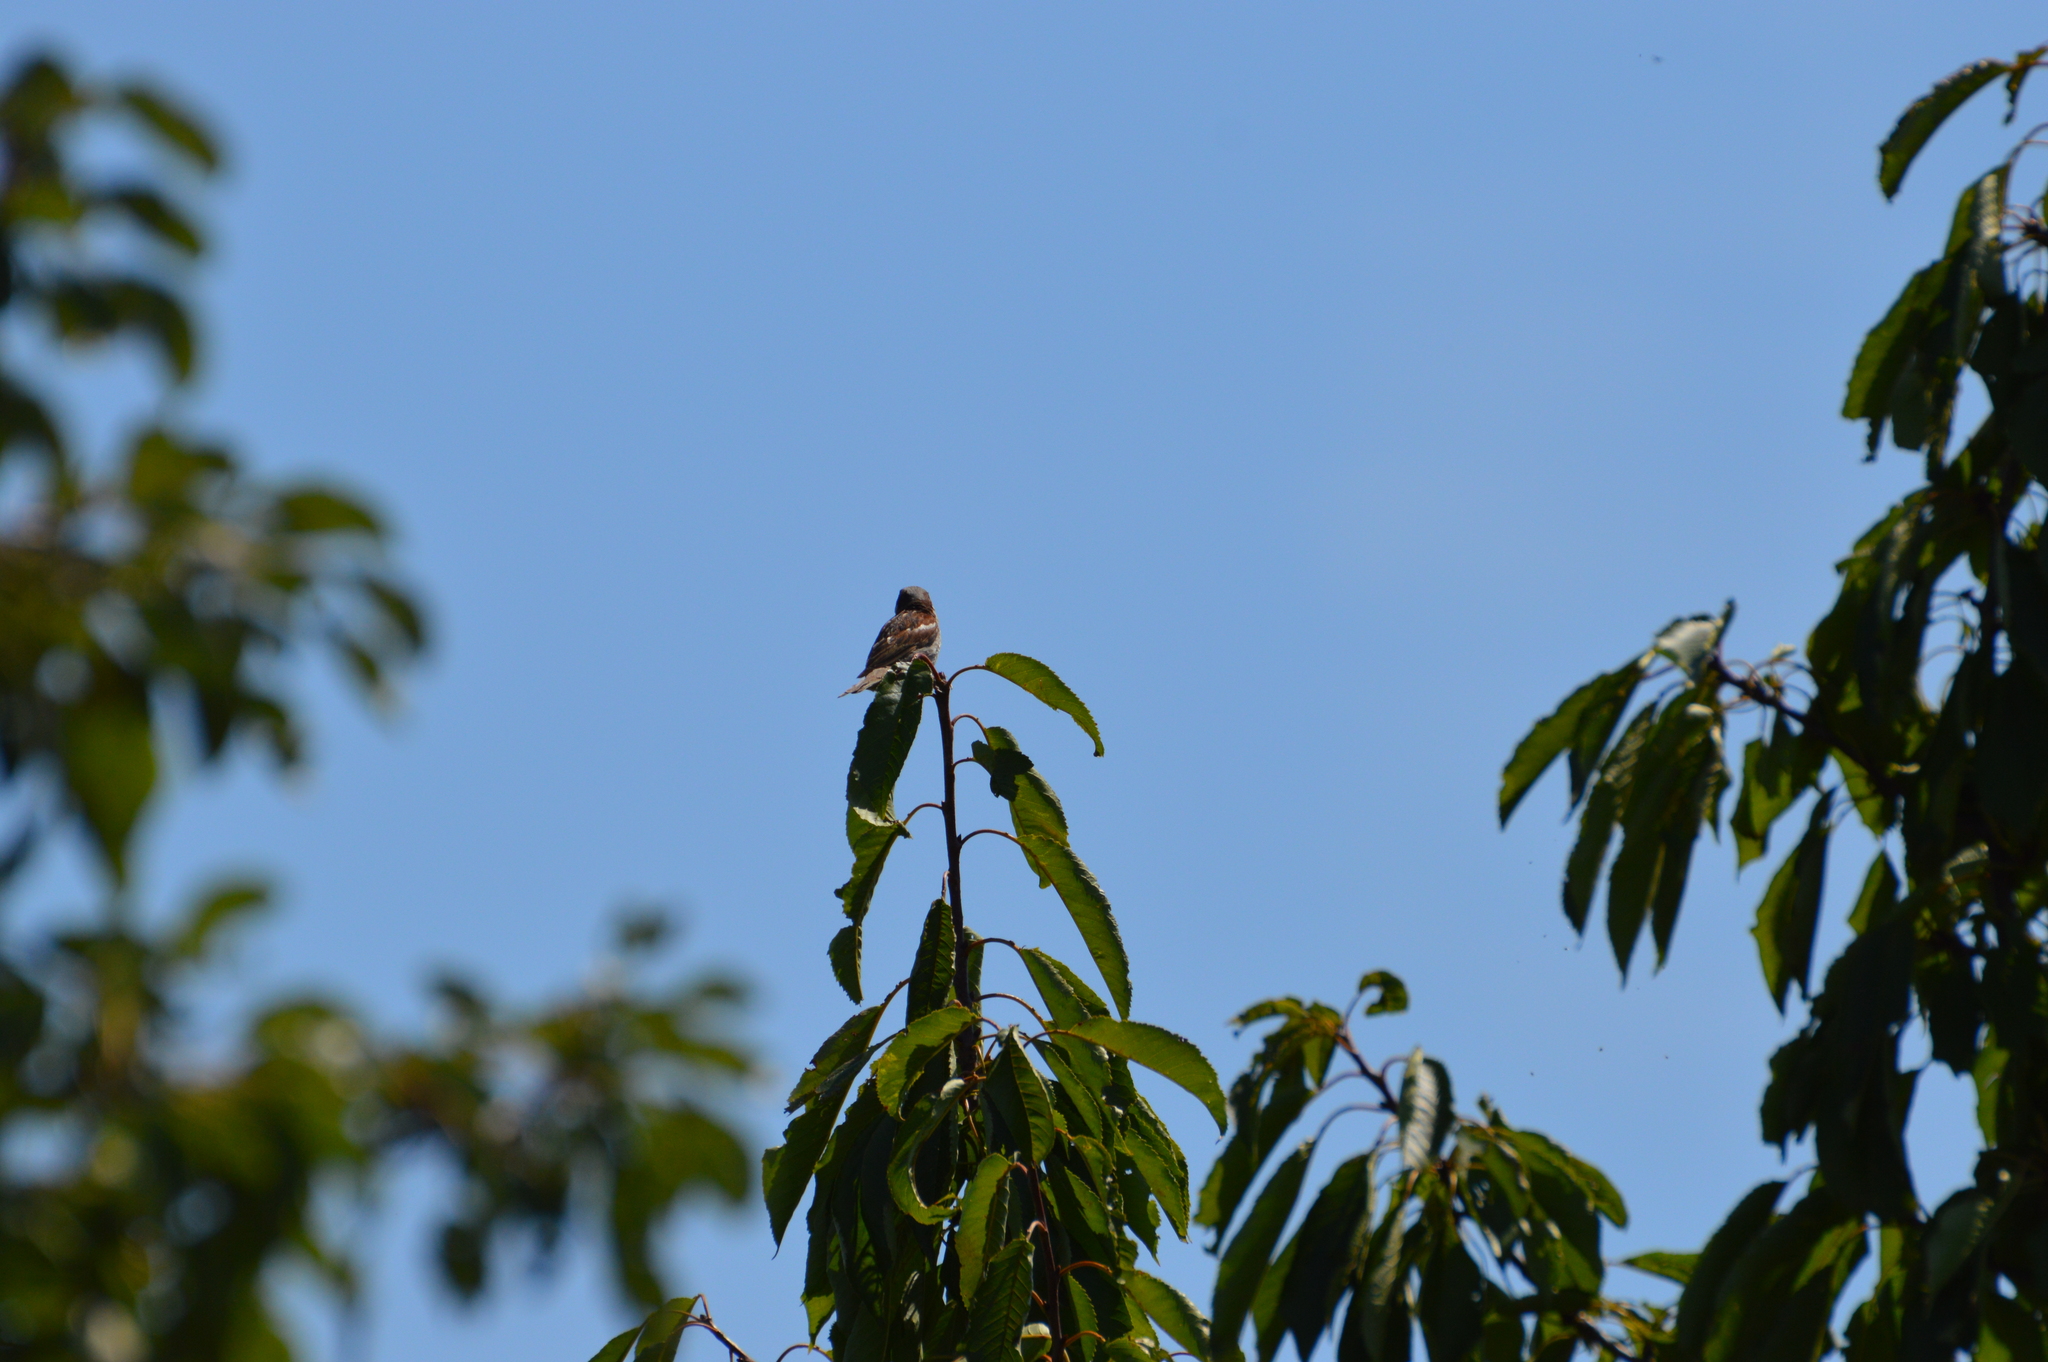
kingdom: Animalia
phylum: Chordata
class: Aves
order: Passeriformes
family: Passeridae
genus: Passer
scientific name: Passer domesticus
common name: House sparrow
